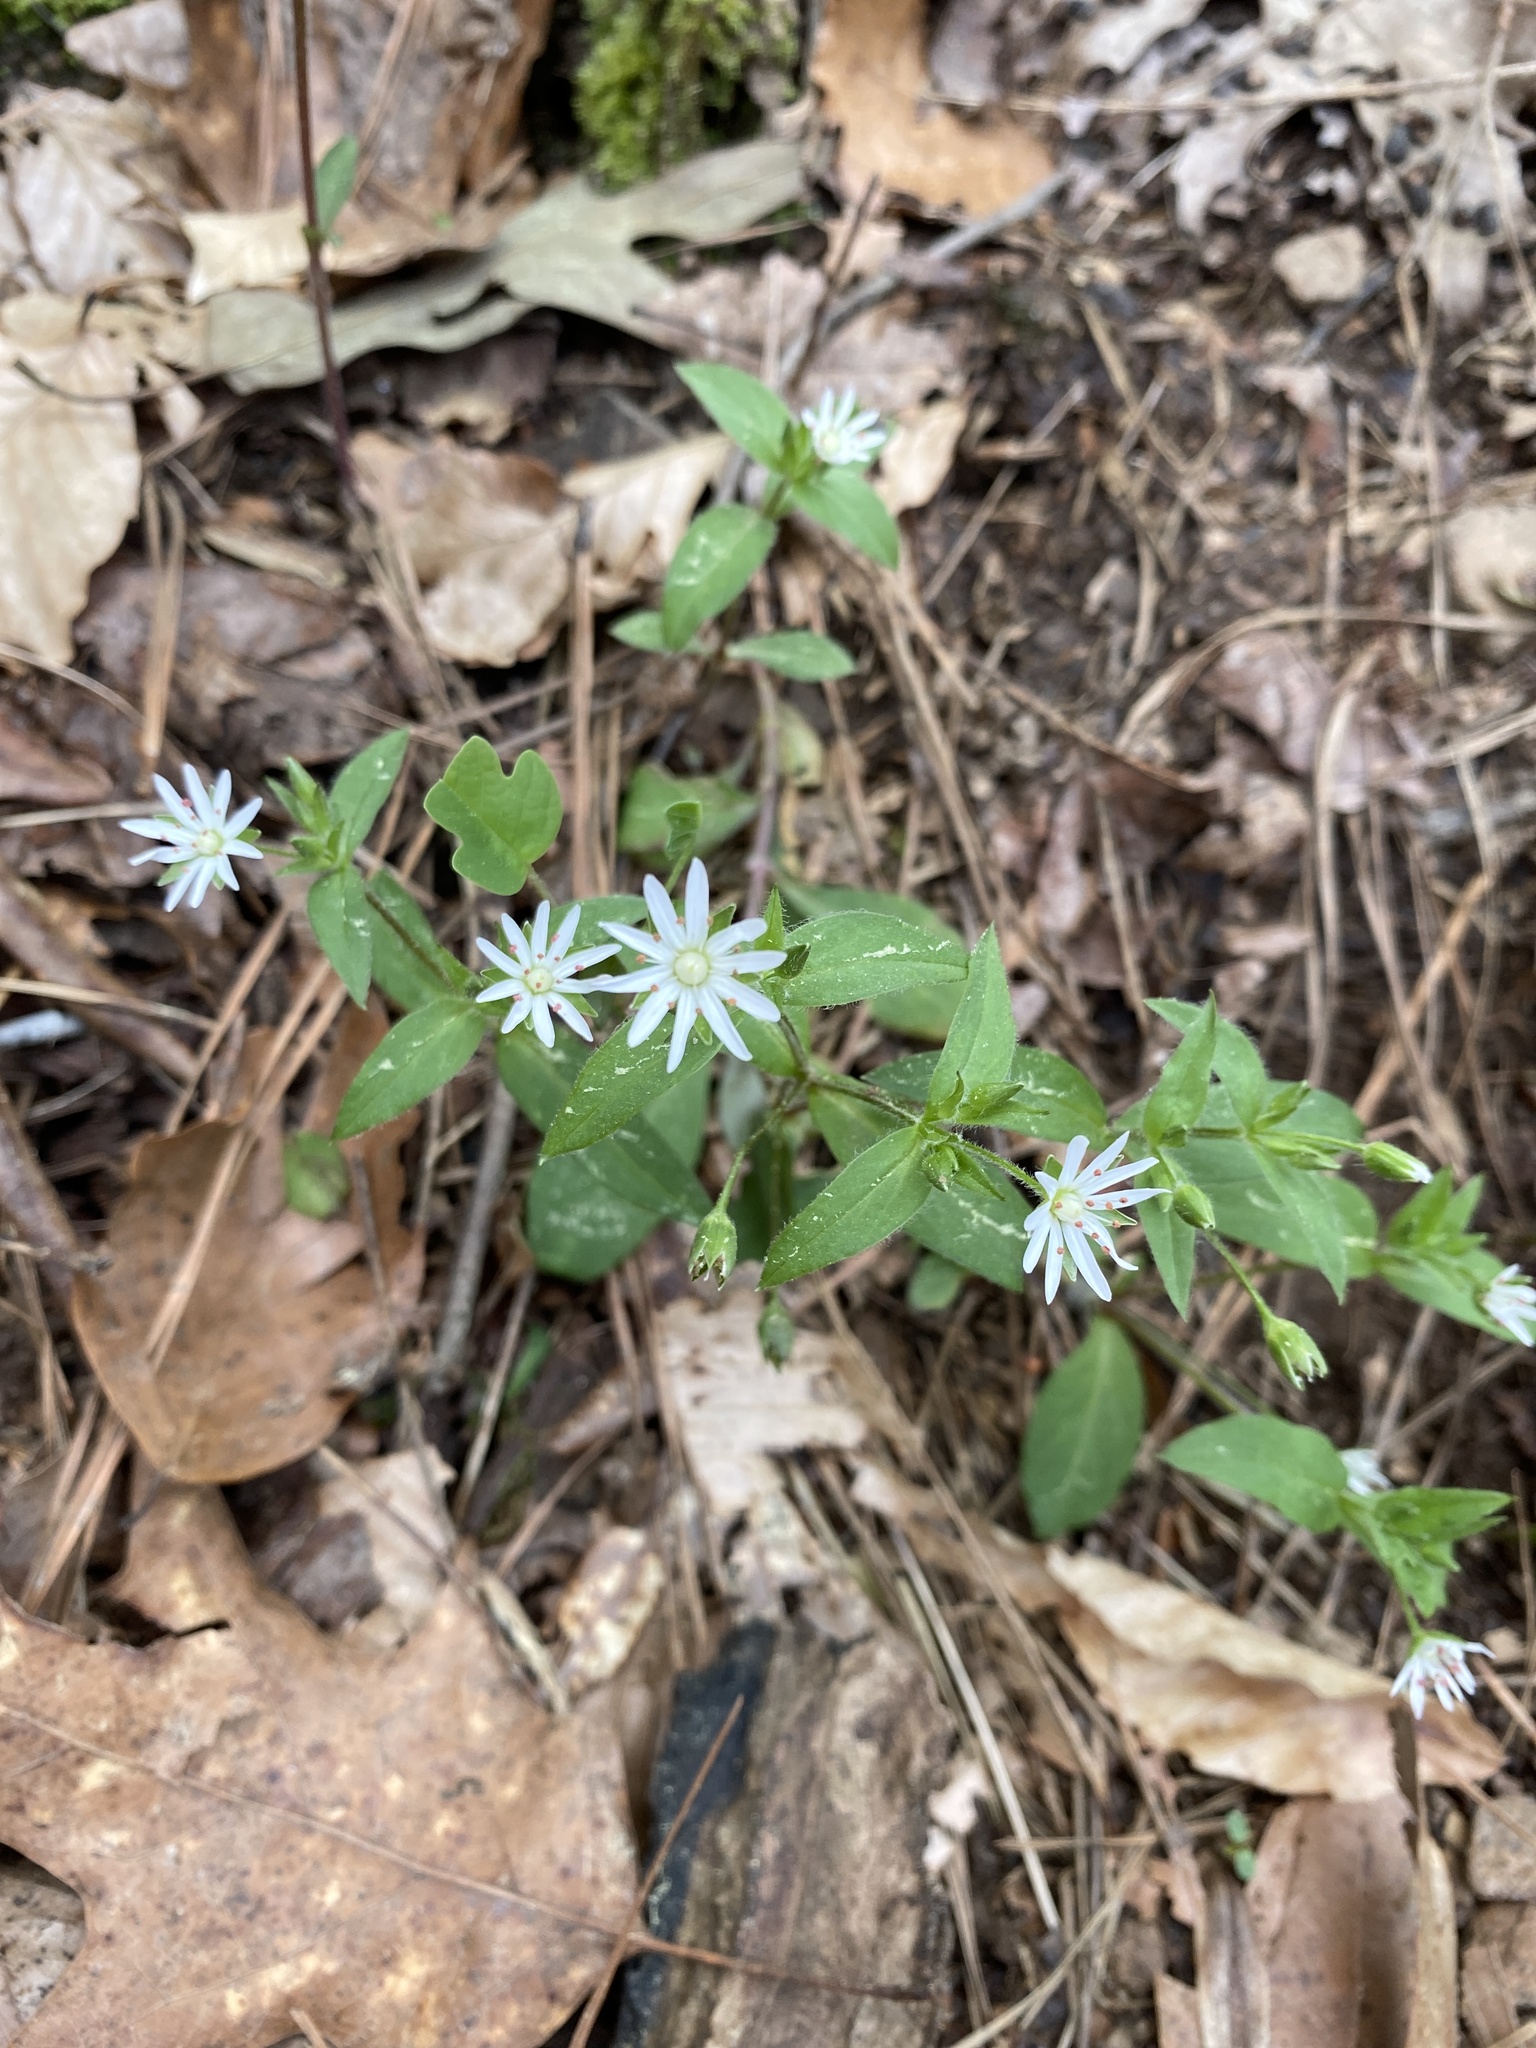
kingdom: Plantae
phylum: Tracheophyta
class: Magnoliopsida
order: Caryophyllales
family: Caryophyllaceae
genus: Stellaria
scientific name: Stellaria pubera
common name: Star chickweed
